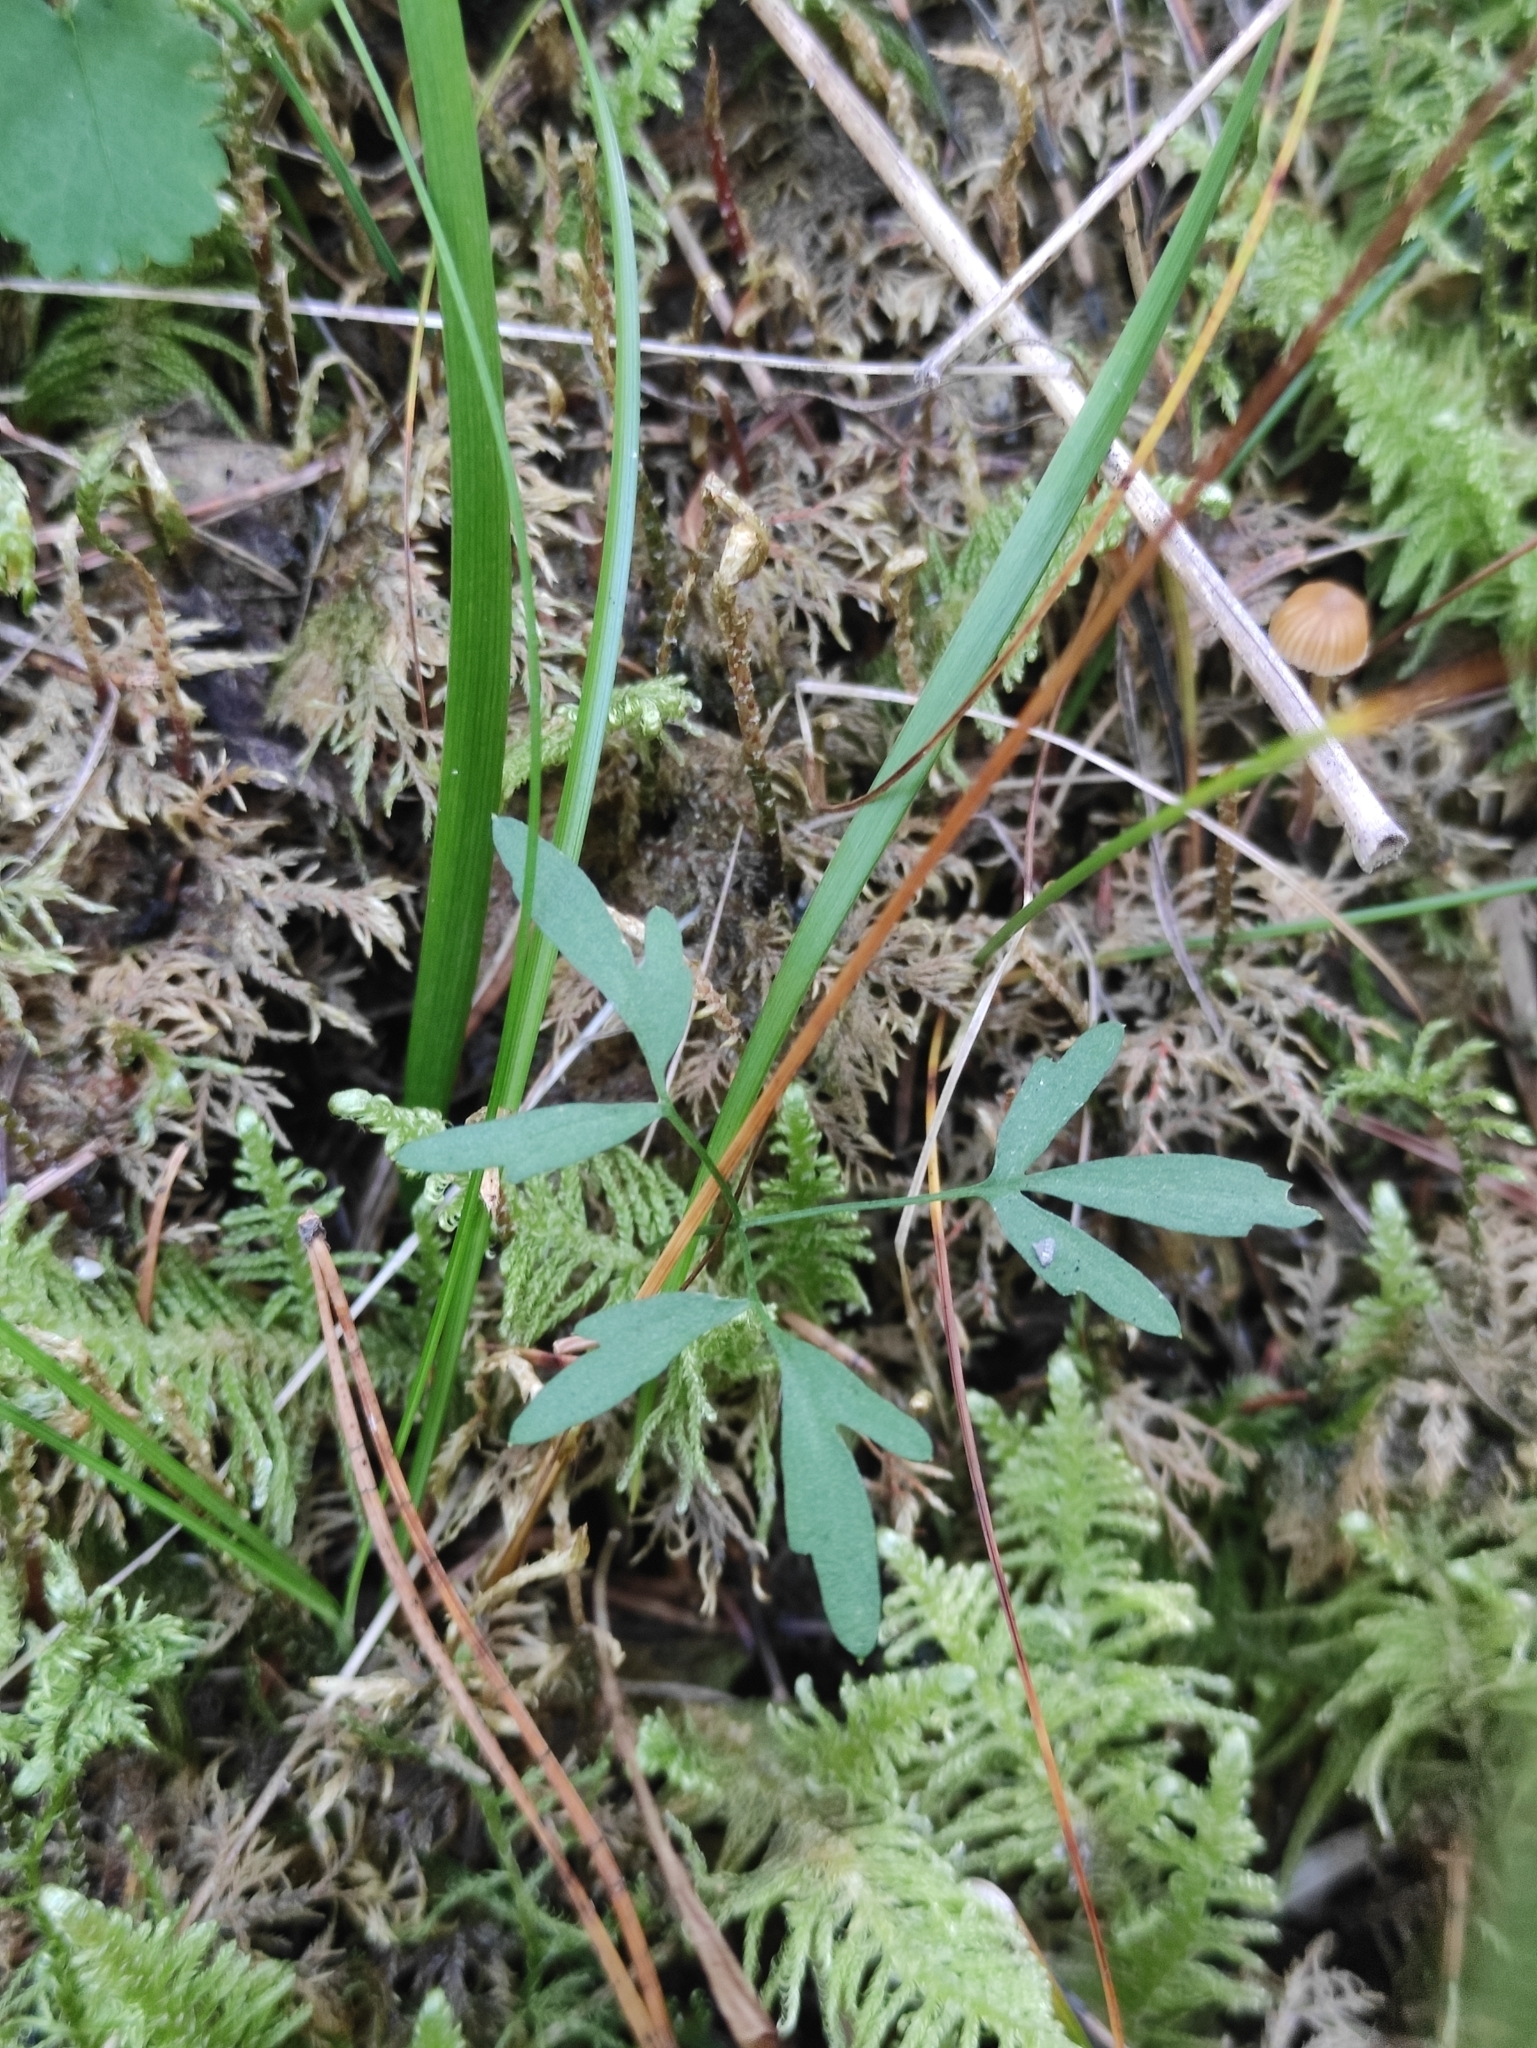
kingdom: Plantae
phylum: Tracheophyta
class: Magnoliopsida
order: Brassicales
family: Brassicaceae
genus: Cardamine
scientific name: Cardamine trifida
